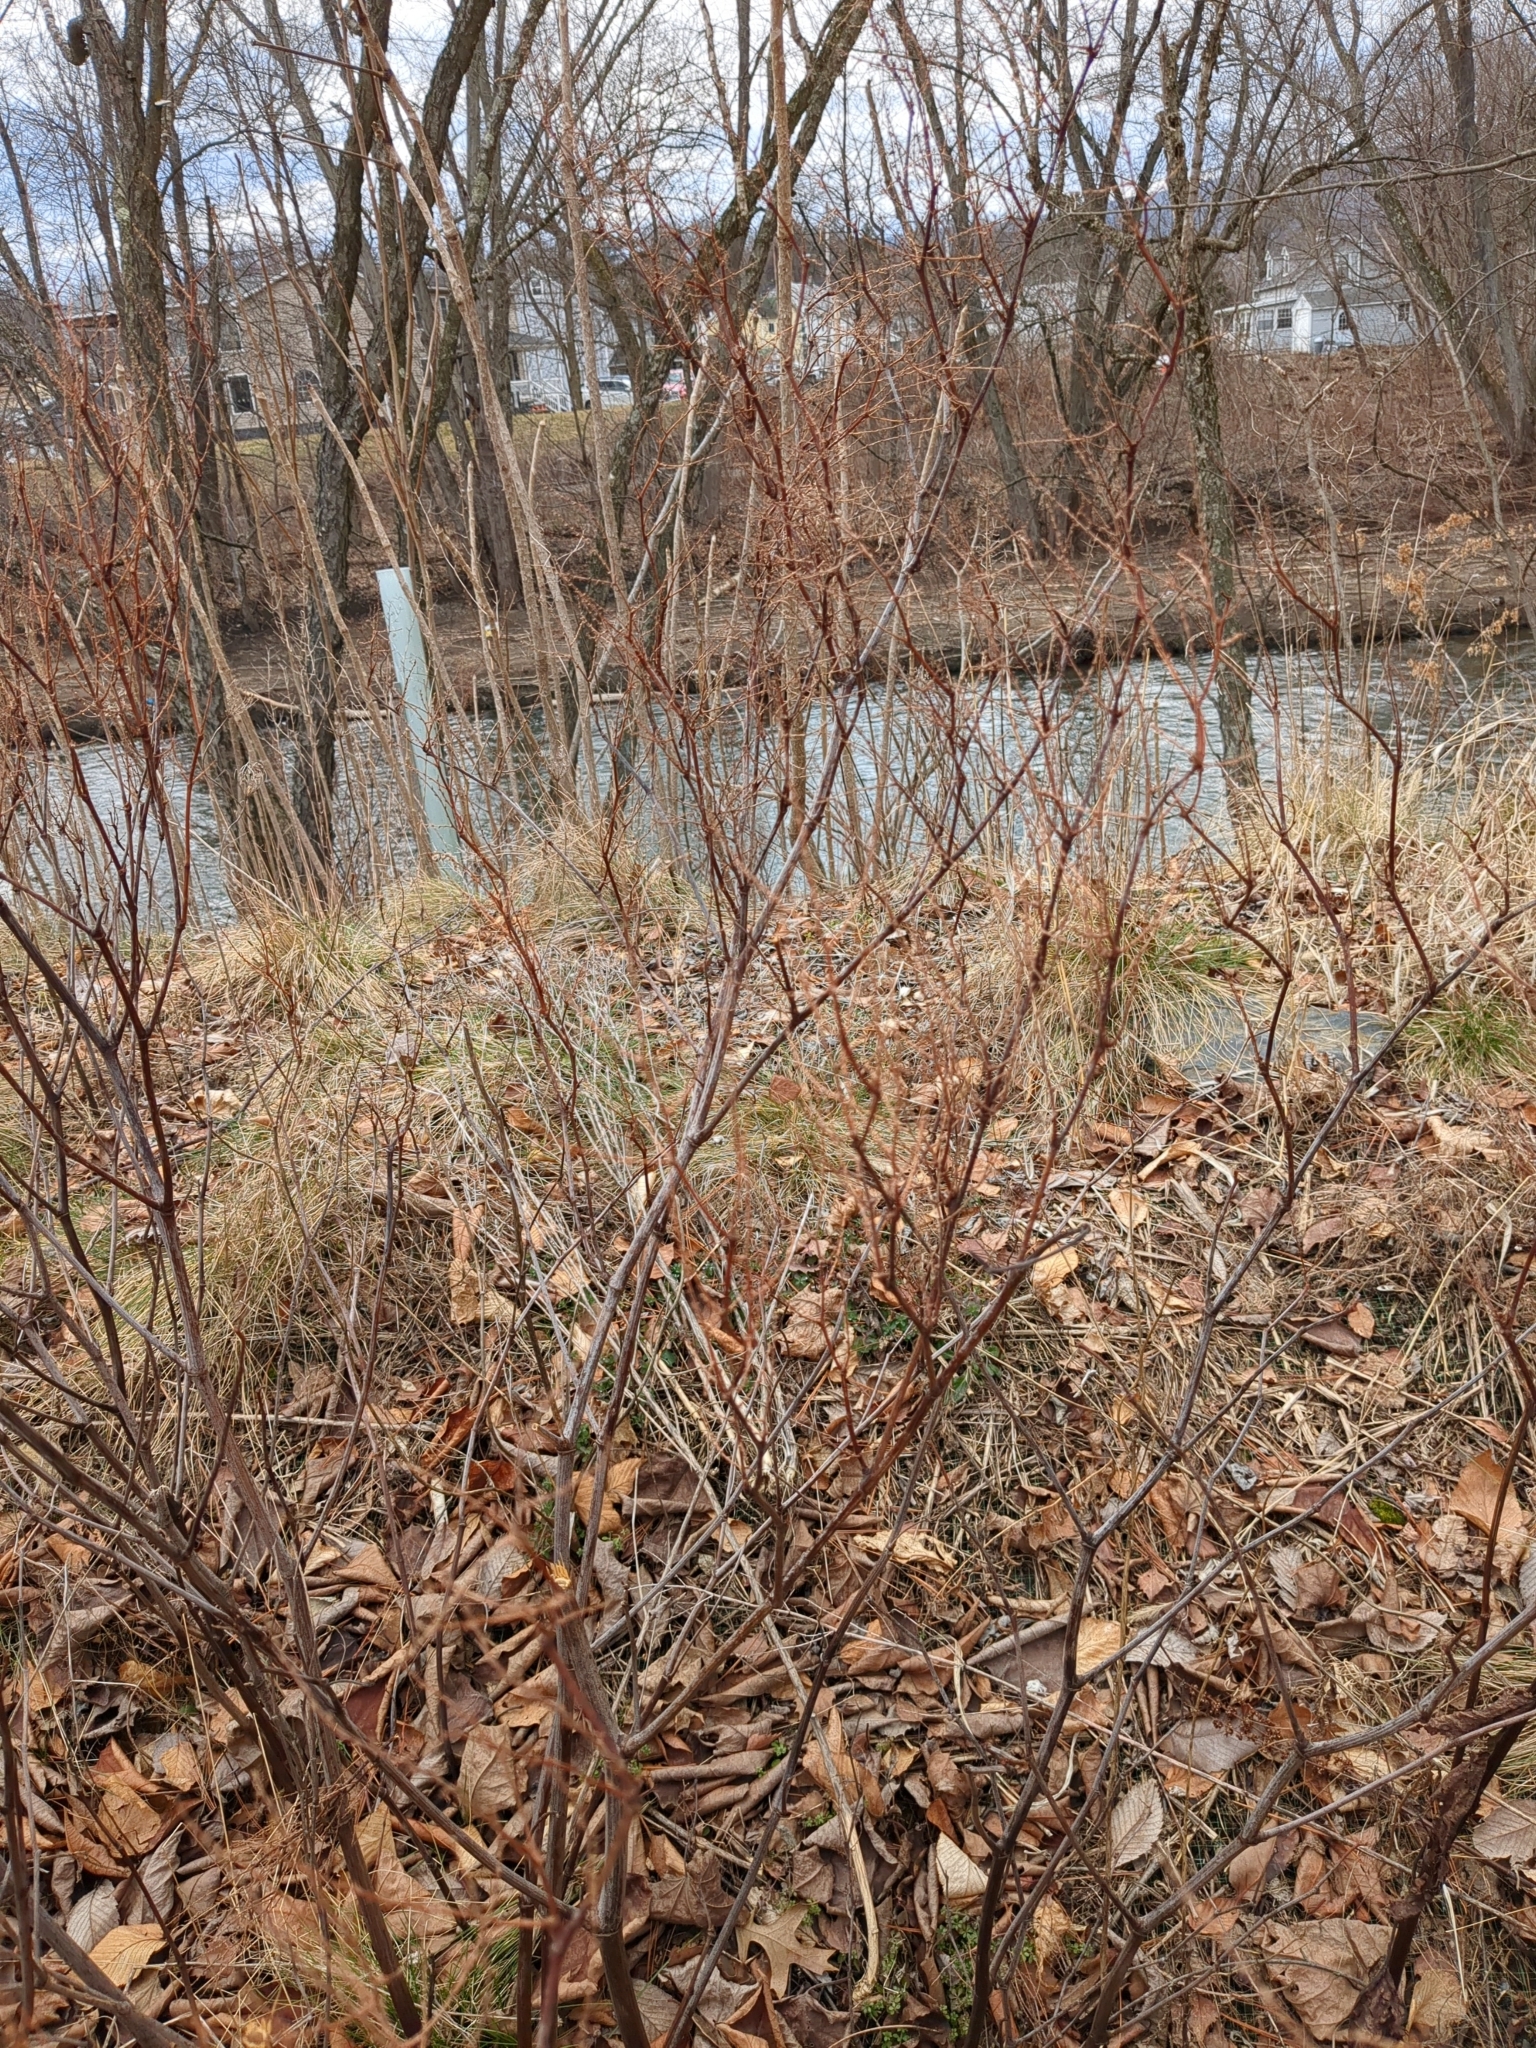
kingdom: Plantae
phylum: Tracheophyta
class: Magnoliopsida
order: Caryophyllales
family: Polygonaceae
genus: Reynoutria
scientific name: Reynoutria japonica
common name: Japanese knotweed
